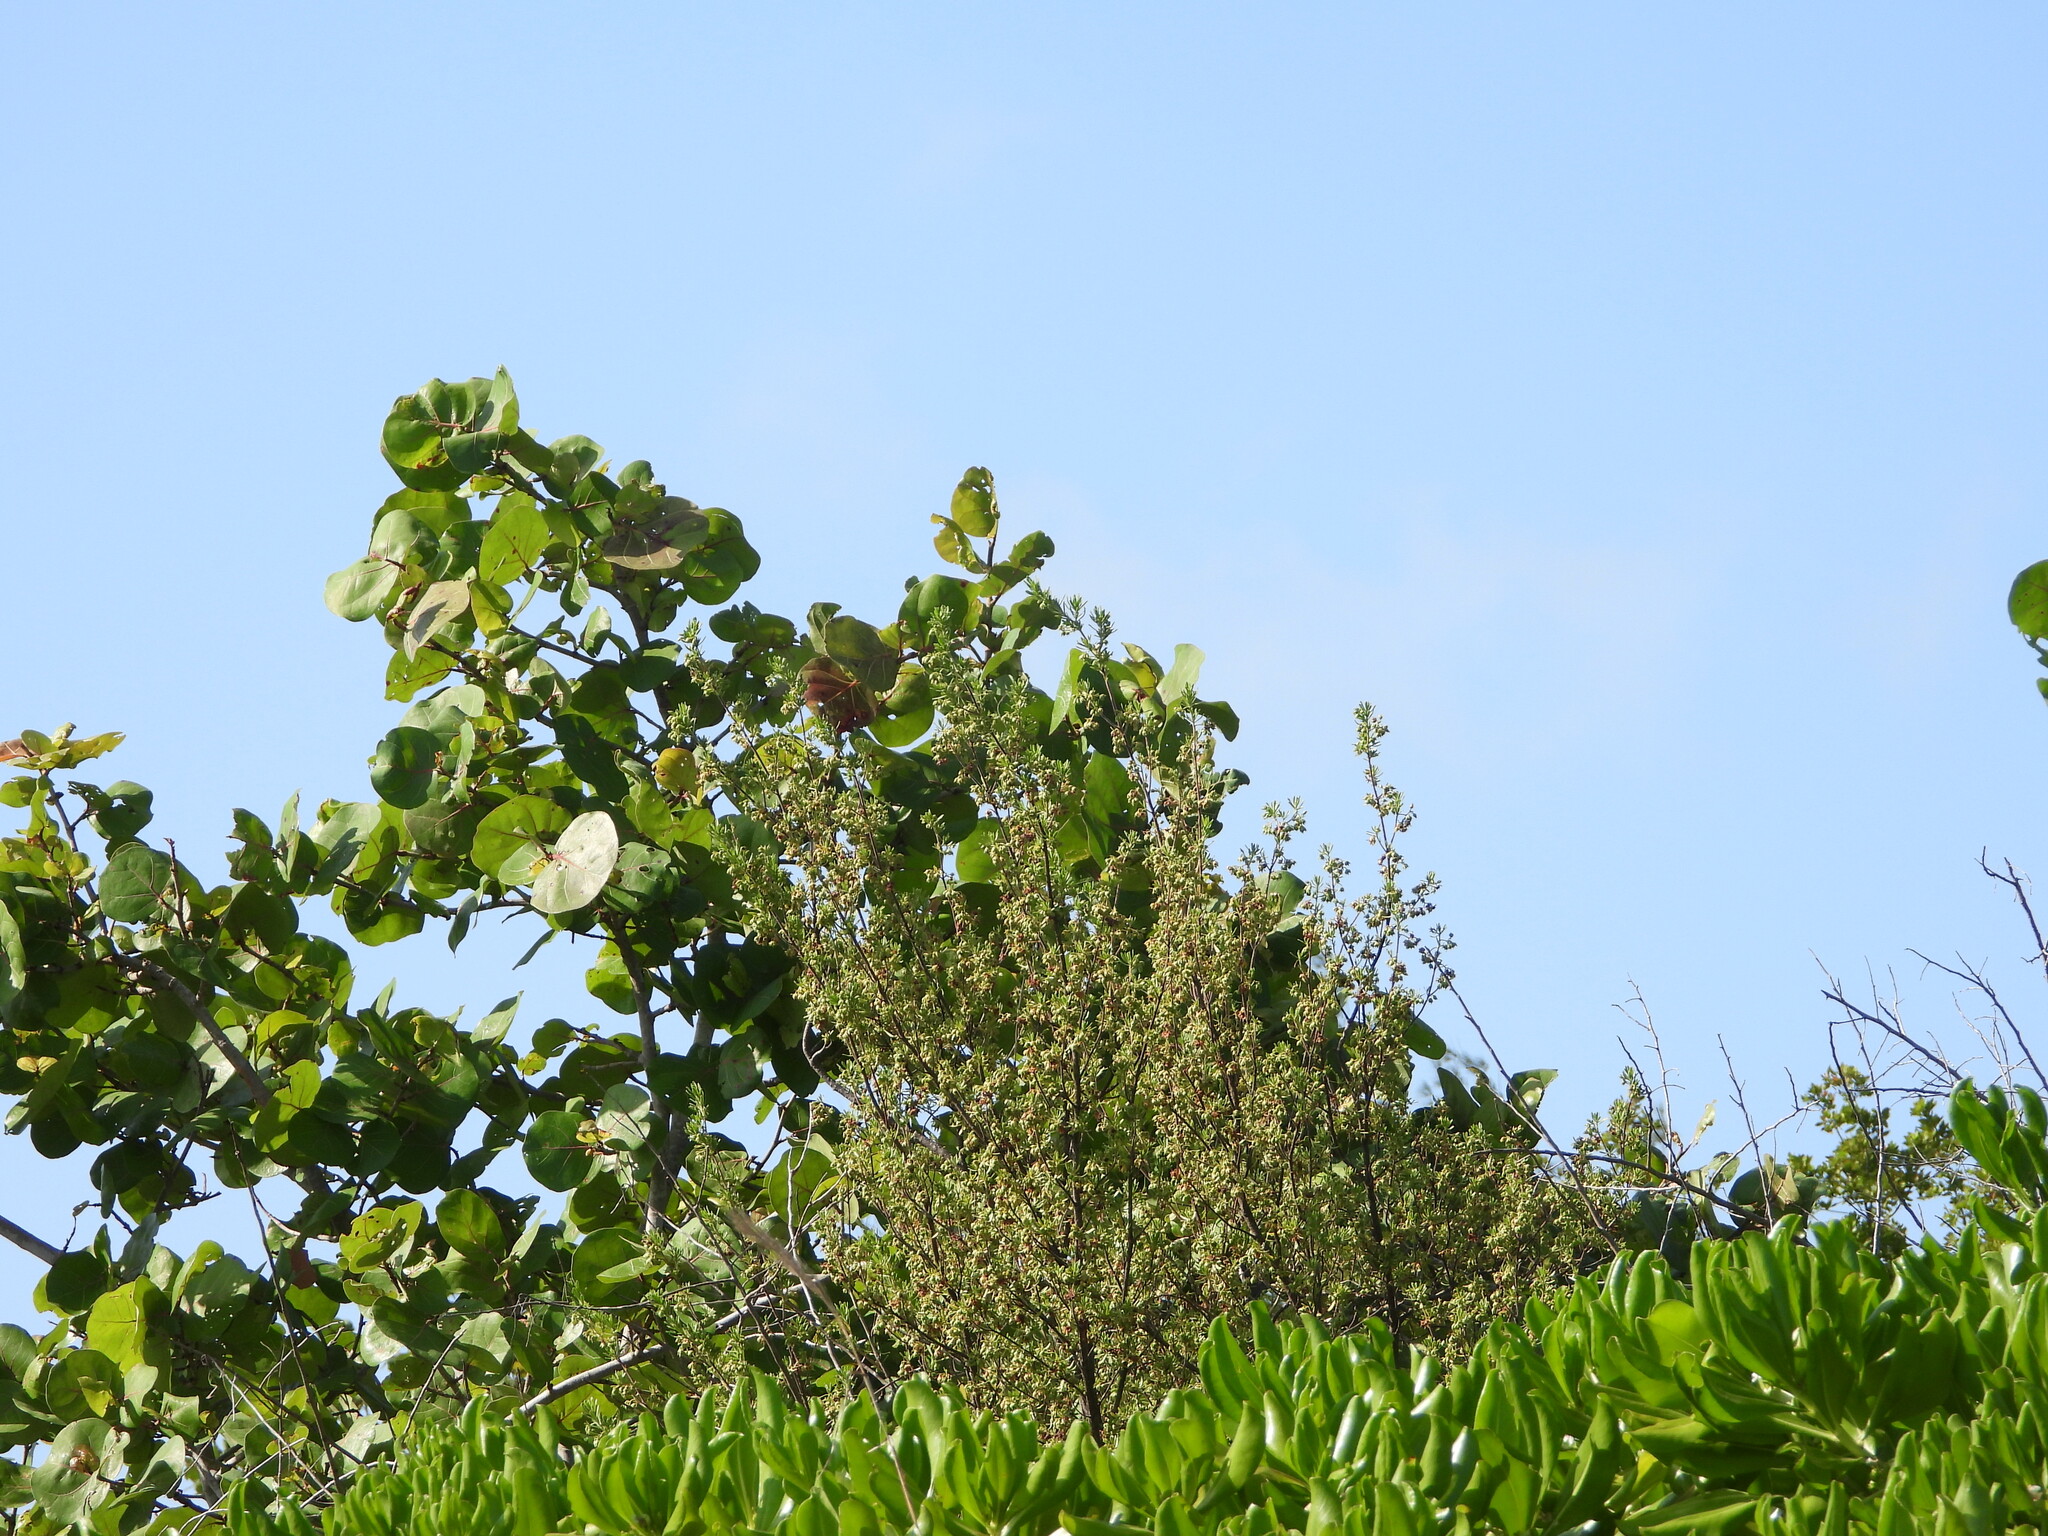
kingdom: Plantae
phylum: Tracheophyta
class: Magnoliopsida
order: Caryophyllales
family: Polygonaceae
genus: Coccoloba
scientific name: Coccoloba uvifera
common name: Seagrape
